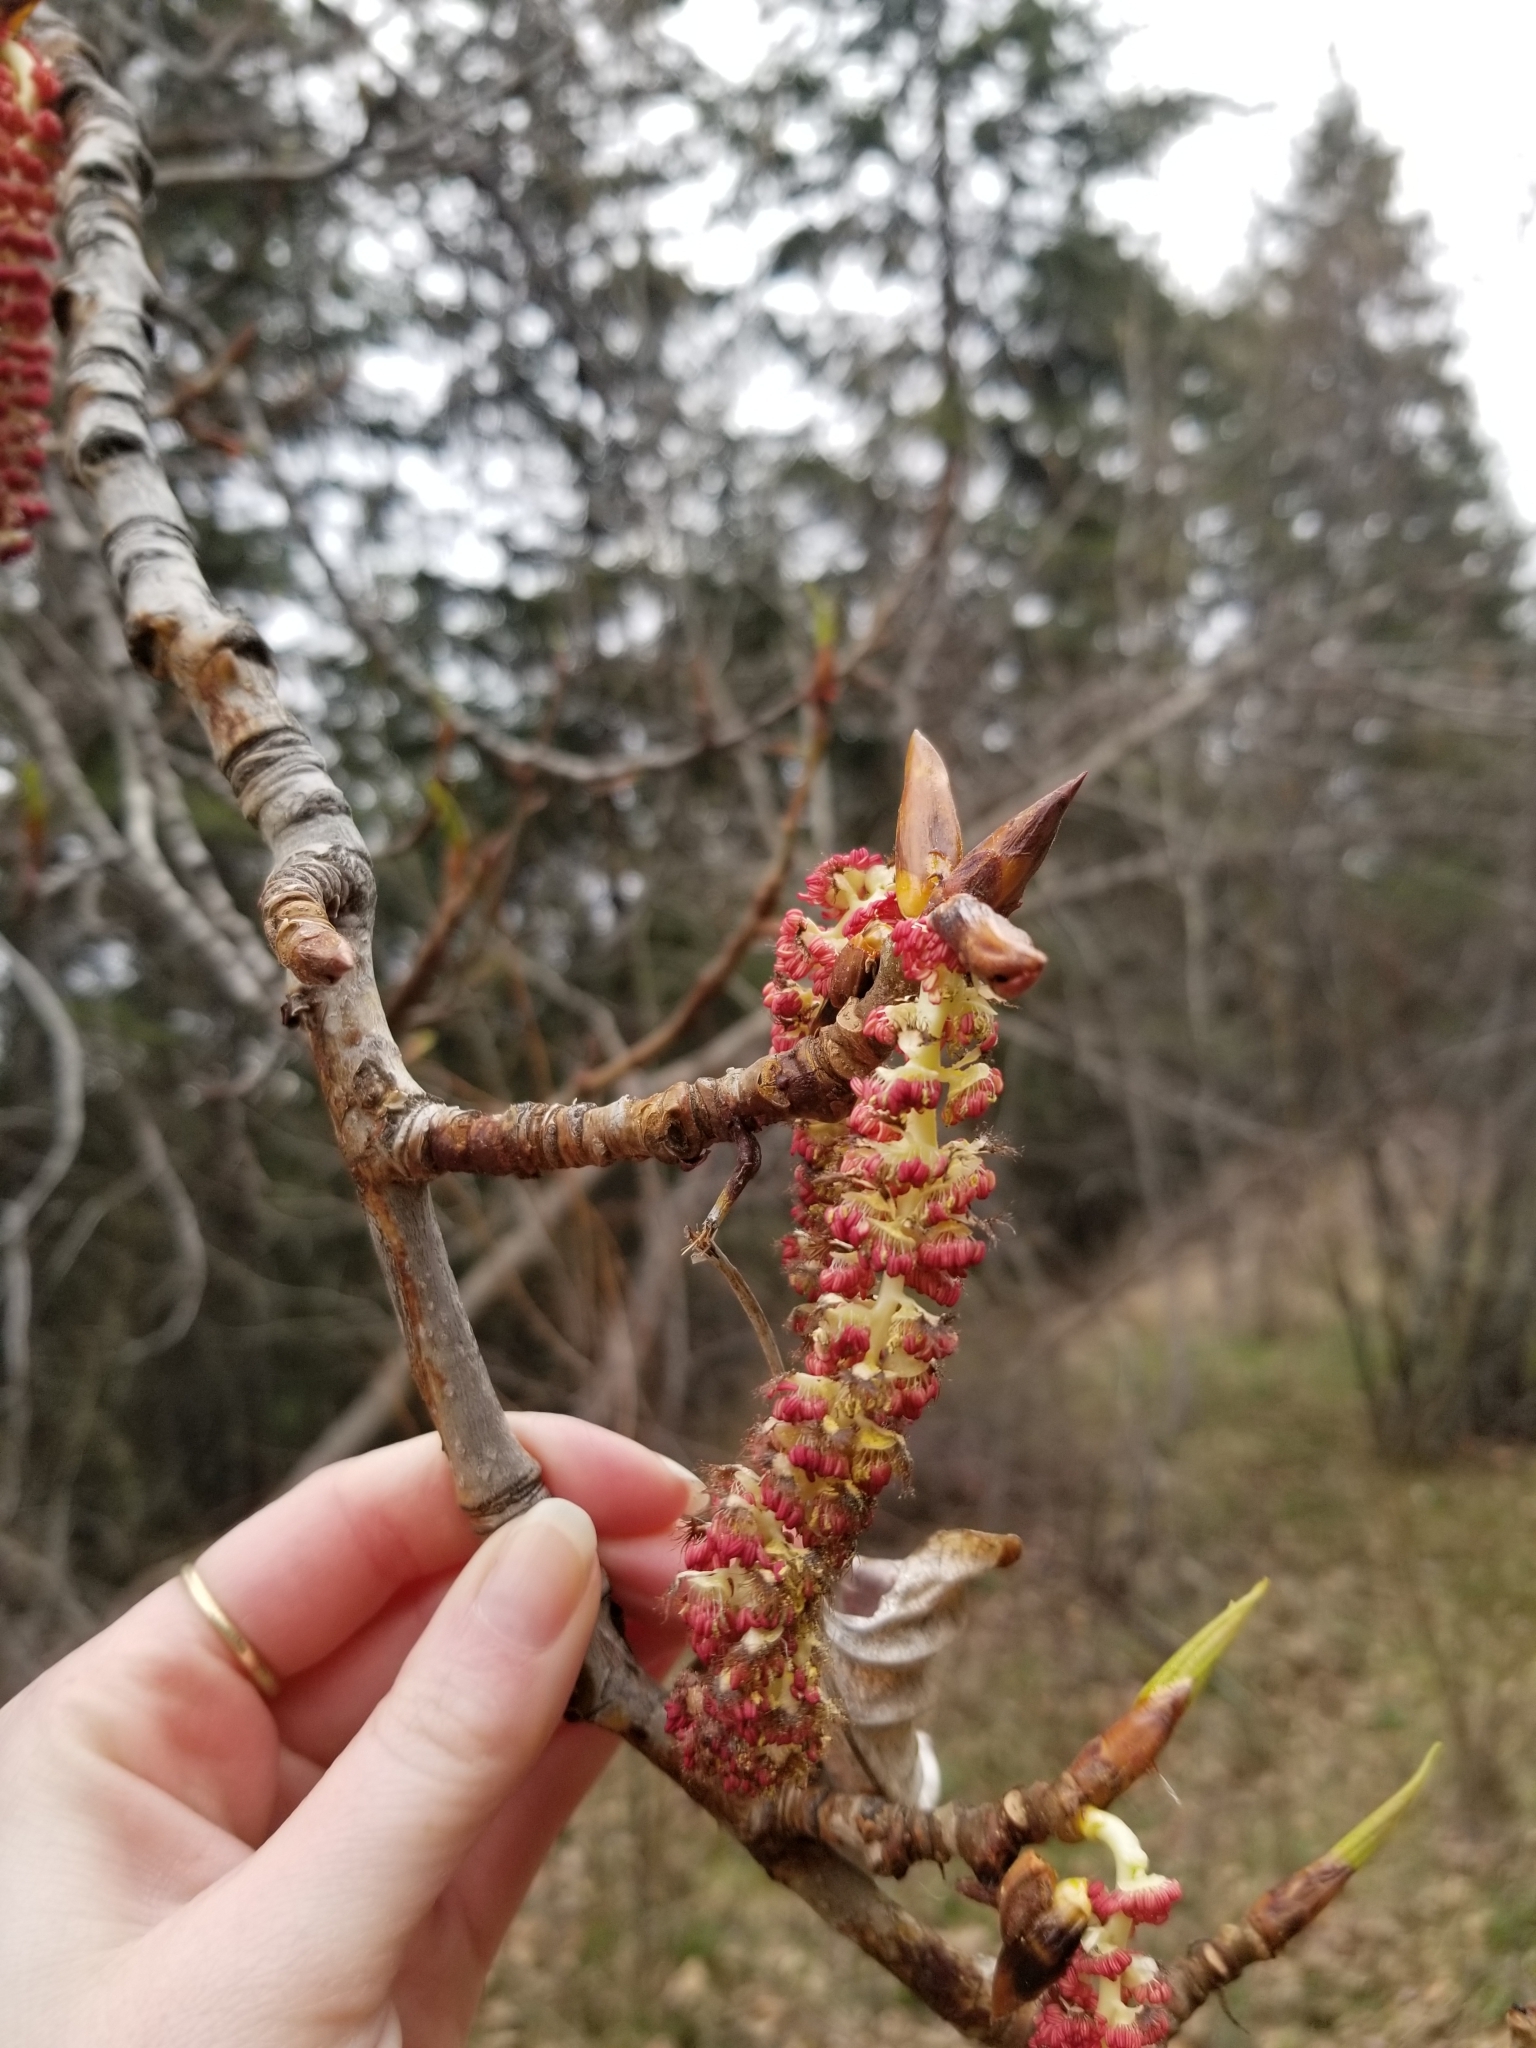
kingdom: Plantae
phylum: Tracheophyta
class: Magnoliopsida
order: Malpighiales
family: Salicaceae
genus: Populus
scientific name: Populus trichocarpa
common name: Black cottonwood
